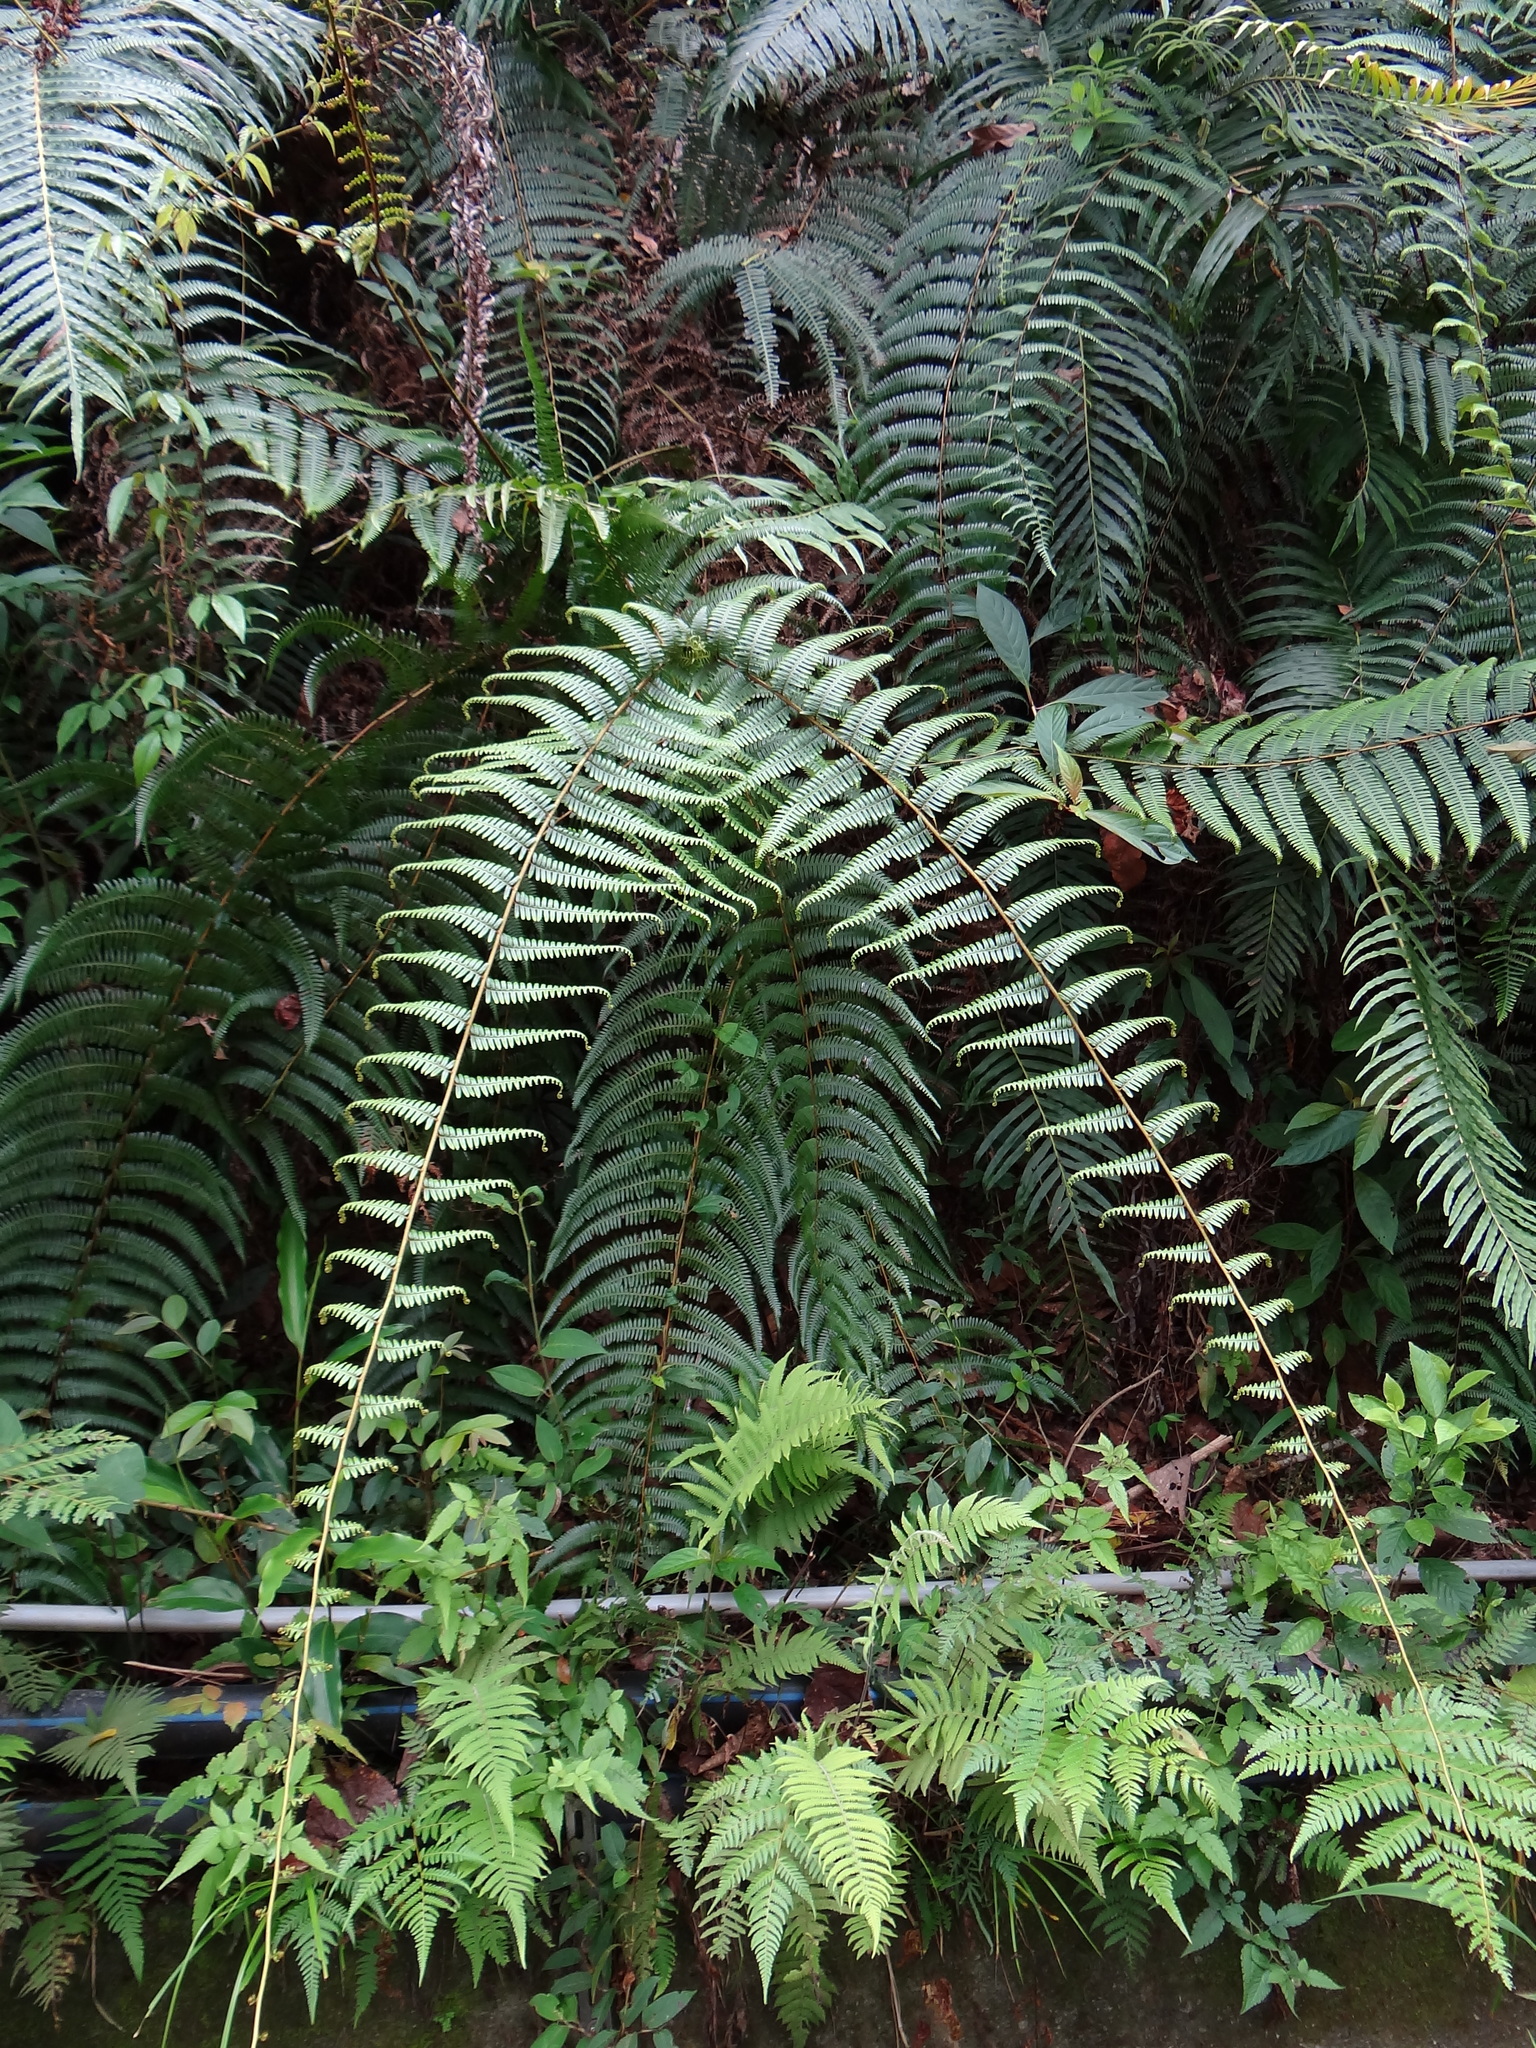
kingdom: Plantae
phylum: Tracheophyta
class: Polypodiopsida
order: Gleicheniales
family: Gleicheniaceae
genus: Diplopterygium
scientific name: Diplopterygium blotianum
